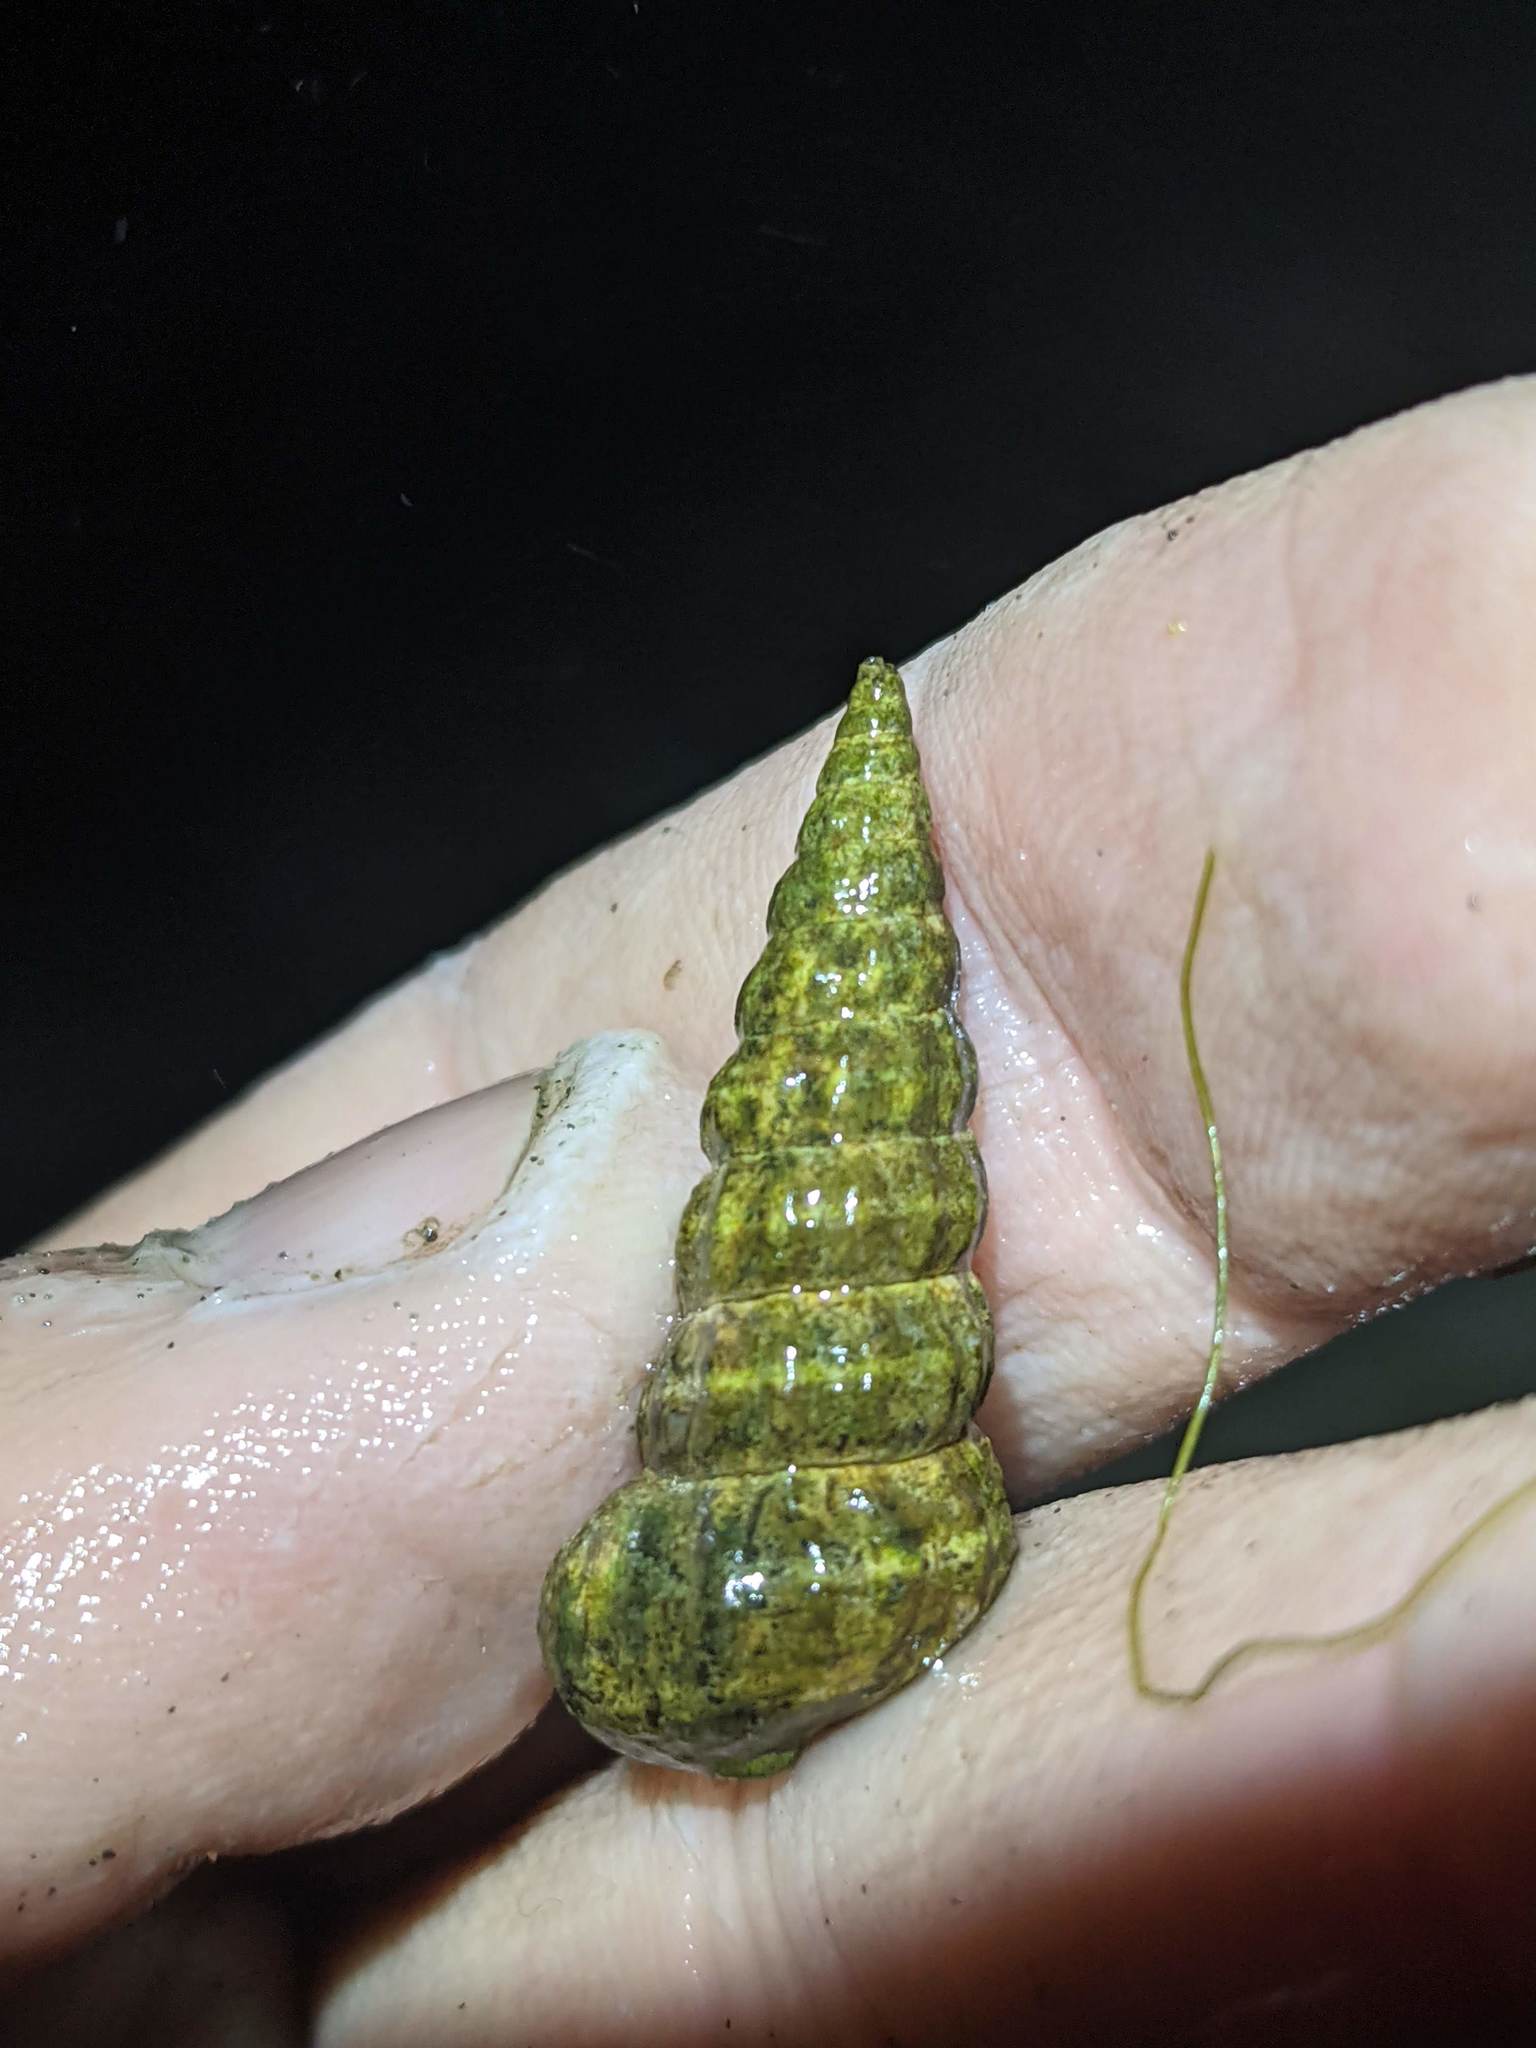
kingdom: Animalia
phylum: Mollusca
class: Gastropoda
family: Potamididae
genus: Cerithideopsis
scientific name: Cerithideopsis californica
